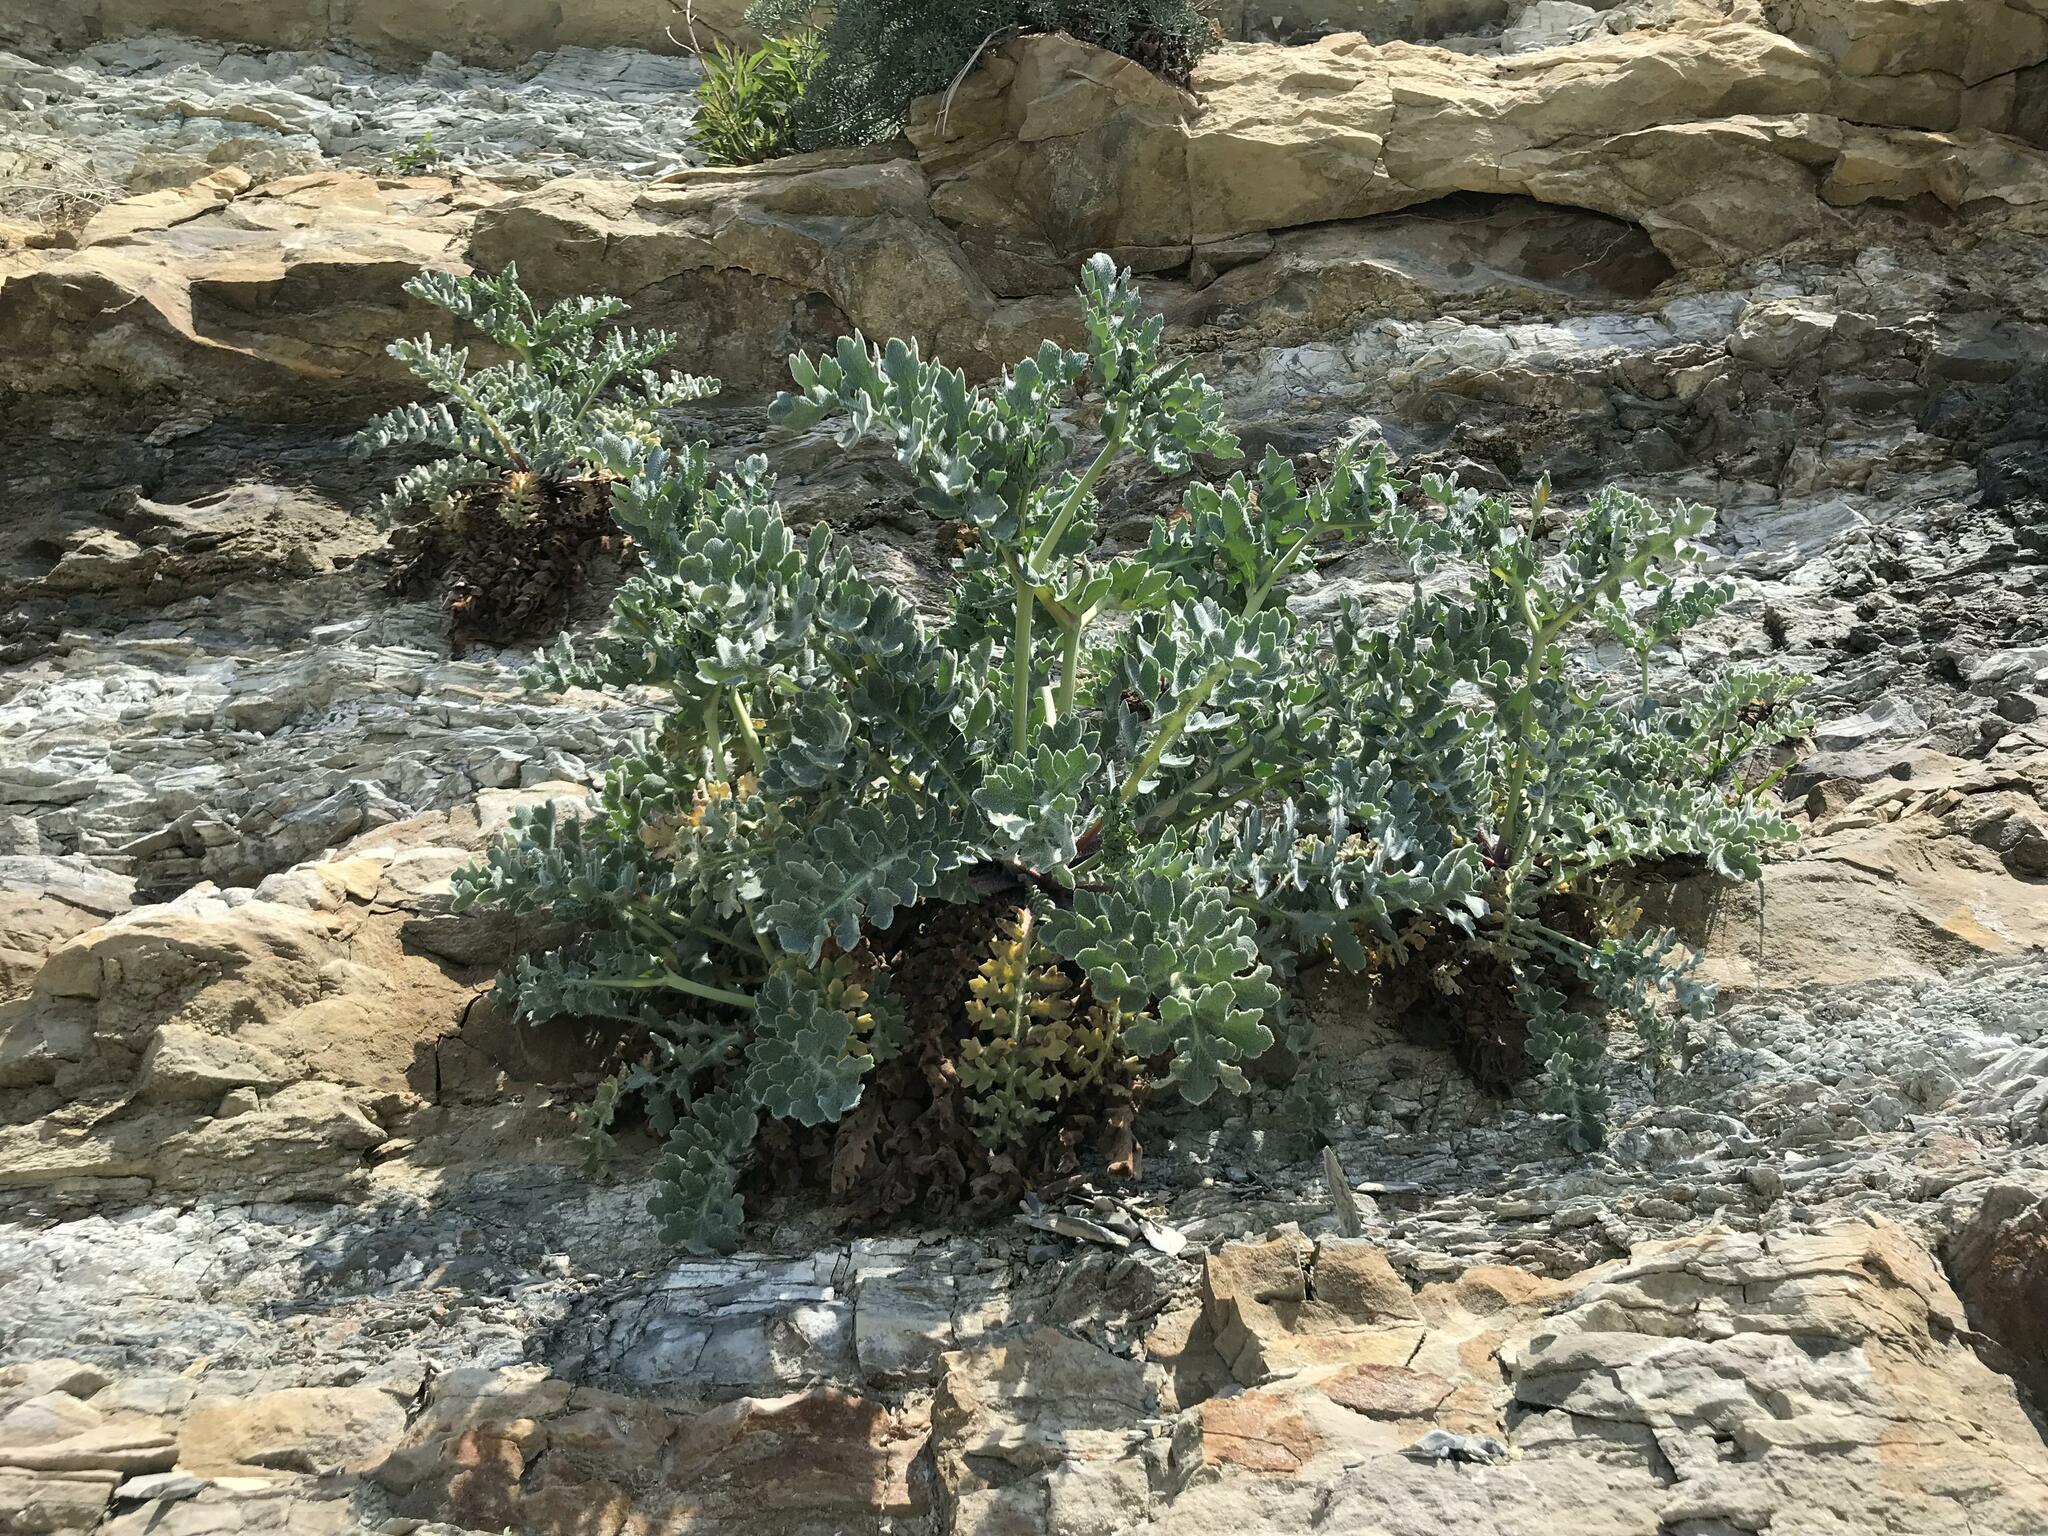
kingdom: Plantae
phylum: Tracheophyta
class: Magnoliopsida
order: Ranunculales
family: Papaveraceae
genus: Glaucium
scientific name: Glaucium flavum
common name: Yellow horned-poppy
